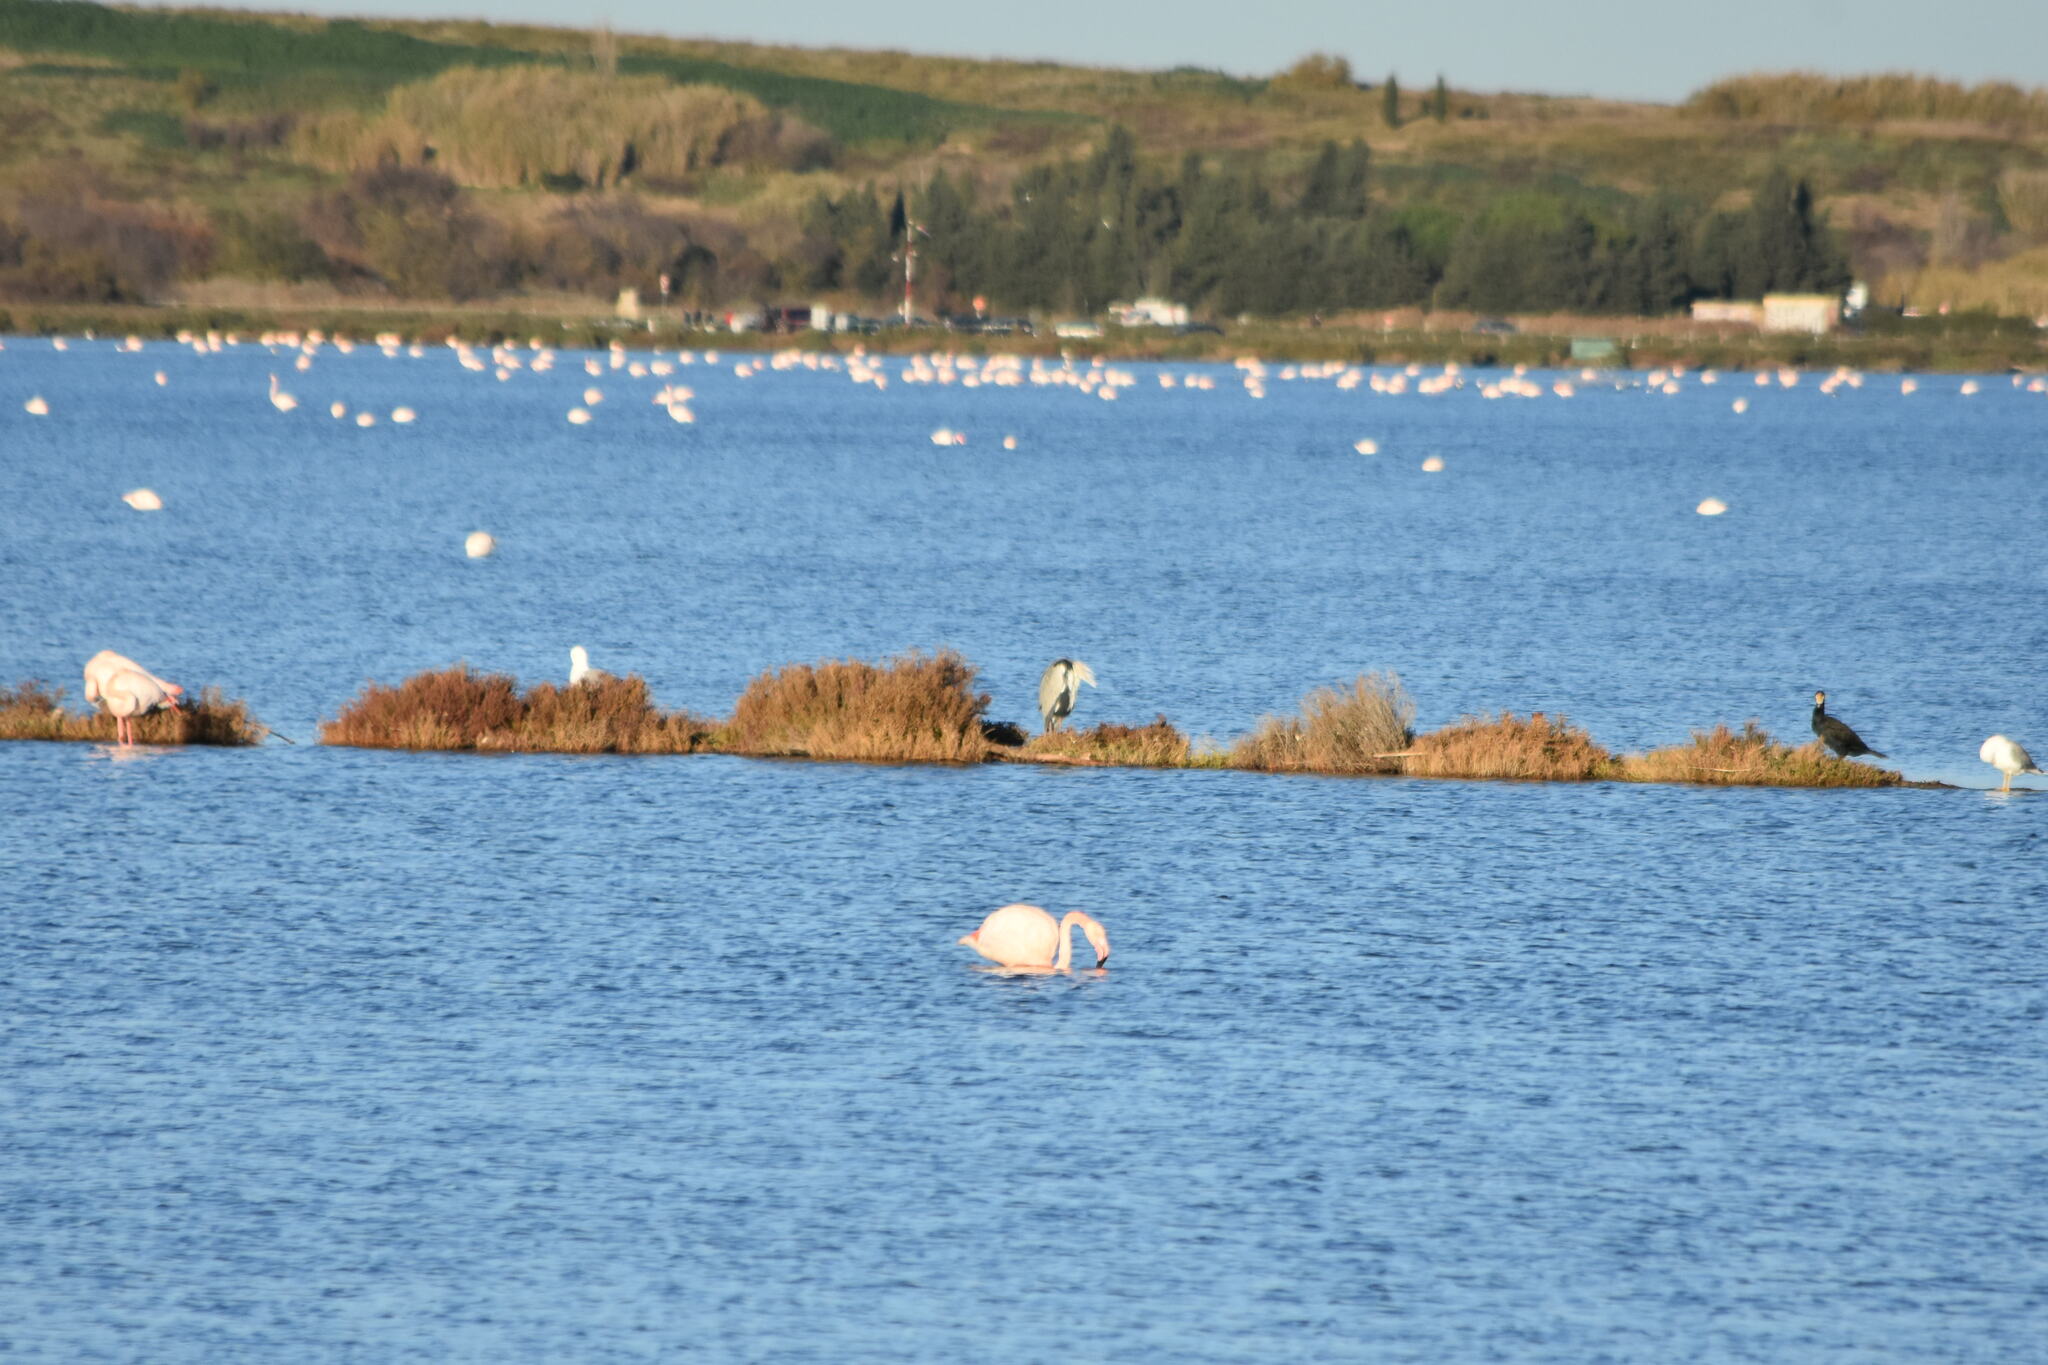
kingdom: Animalia
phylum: Chordata
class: Aves
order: Pelecaniformes
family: Ardeidae
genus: Ardea
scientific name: Ardea cinerea
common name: Grey heron
